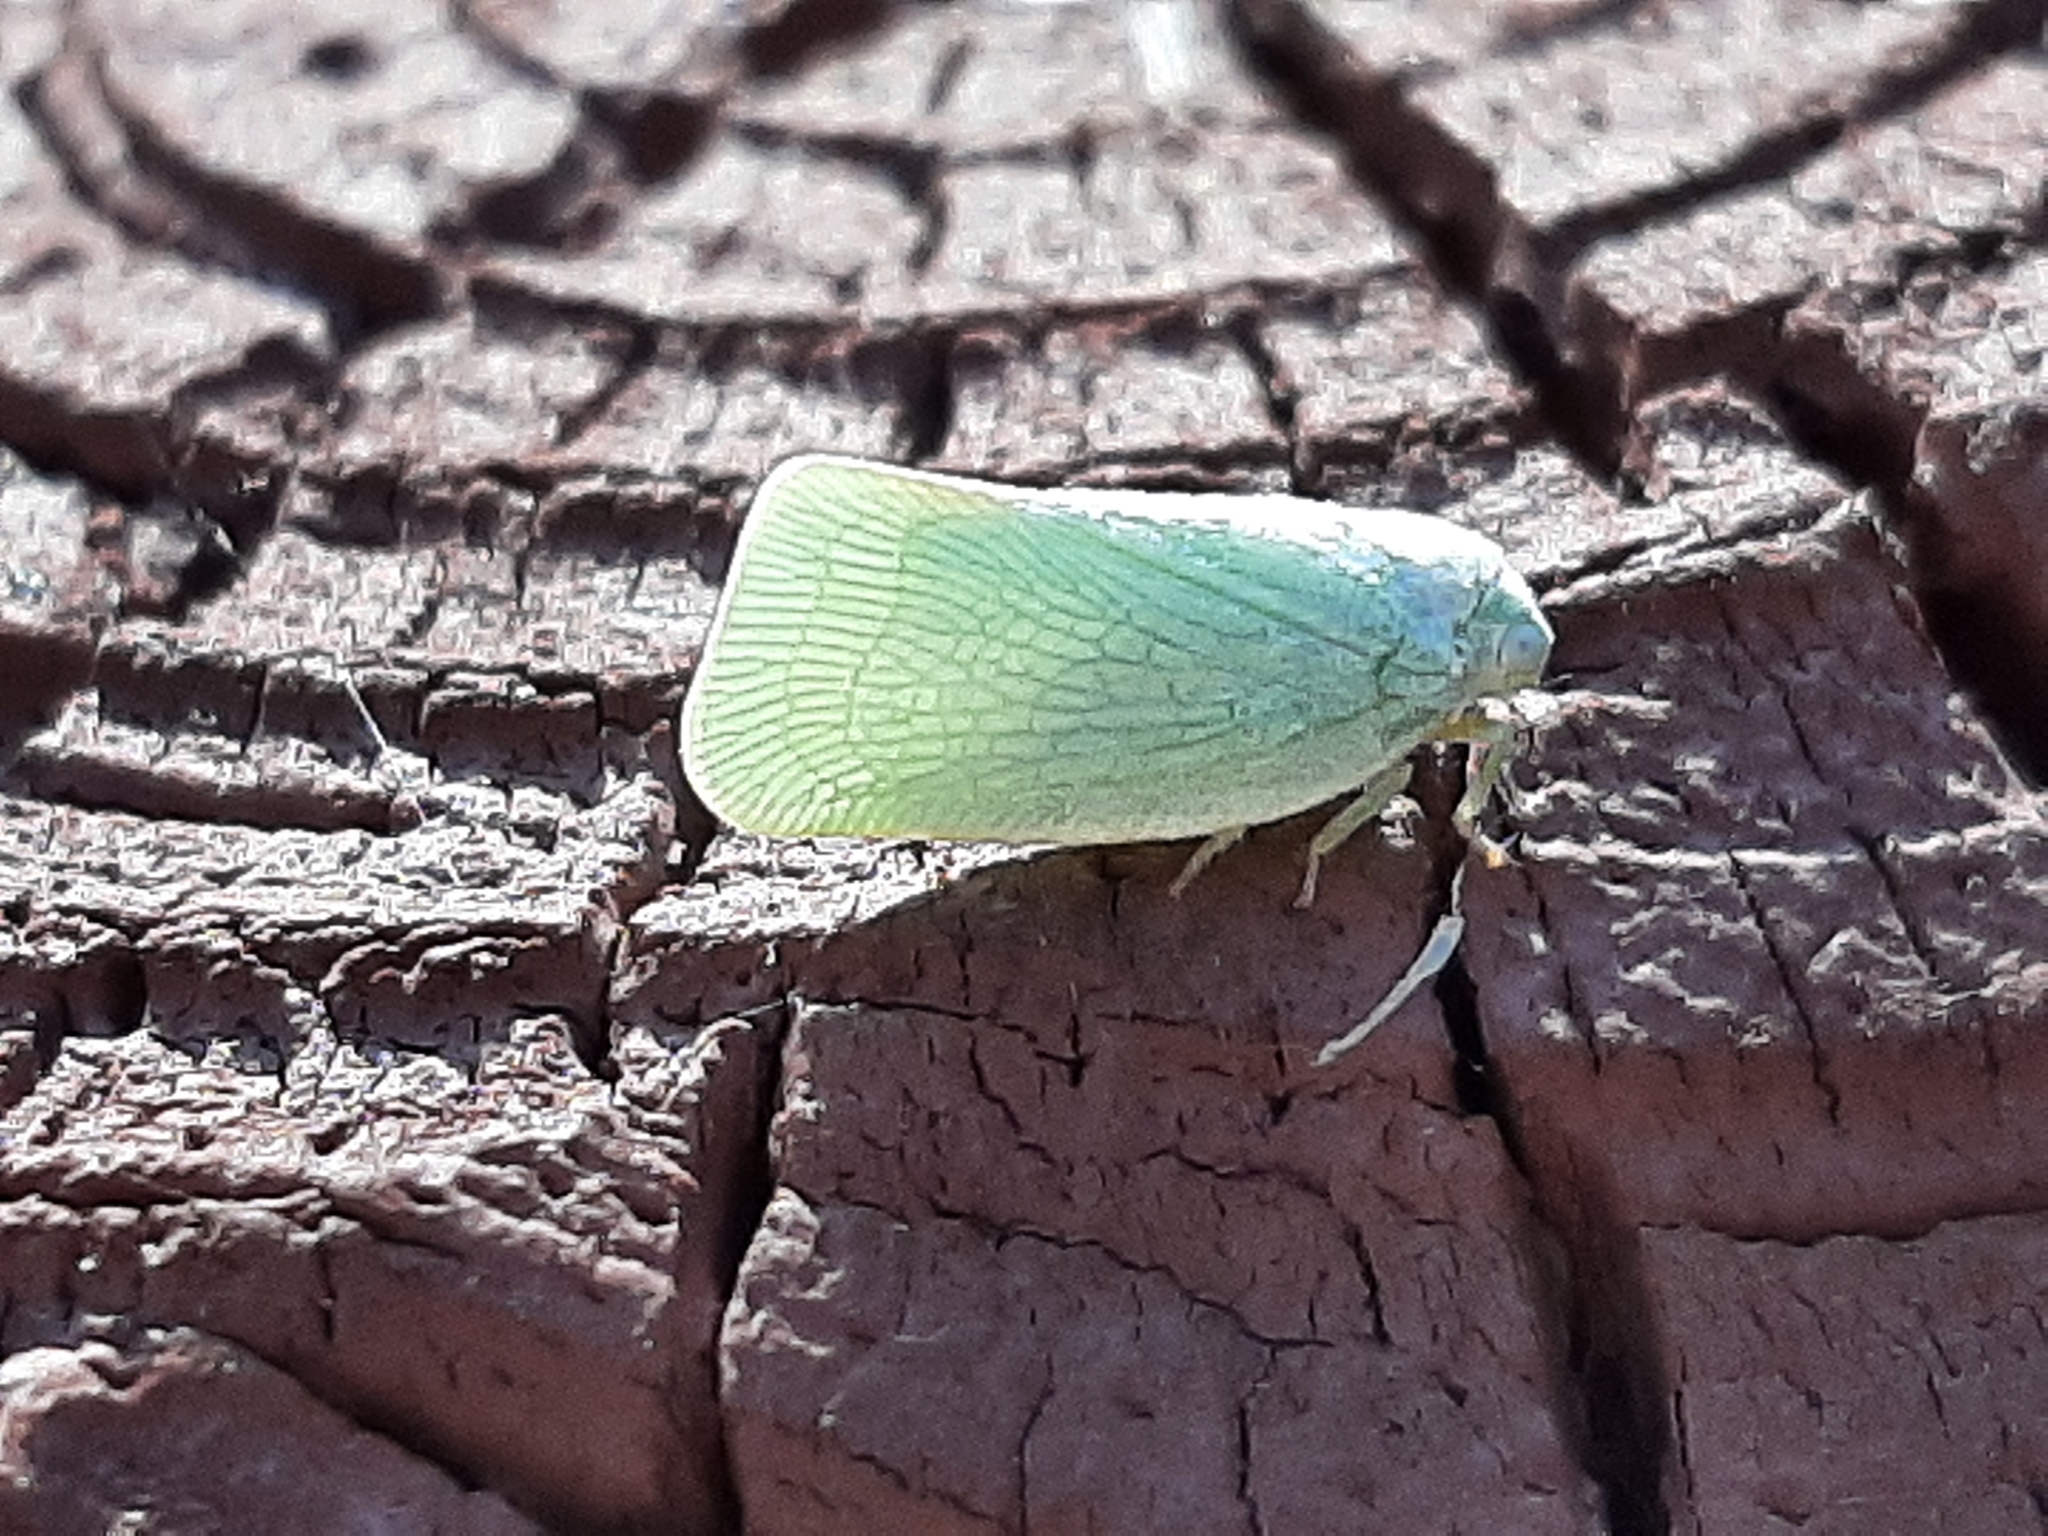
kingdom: Animalia
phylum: Arthropoda
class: Insecta
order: Hemiptera
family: Flatidae
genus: Flatormenis
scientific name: Flatormenis proxima
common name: Northern flatid planthopper
